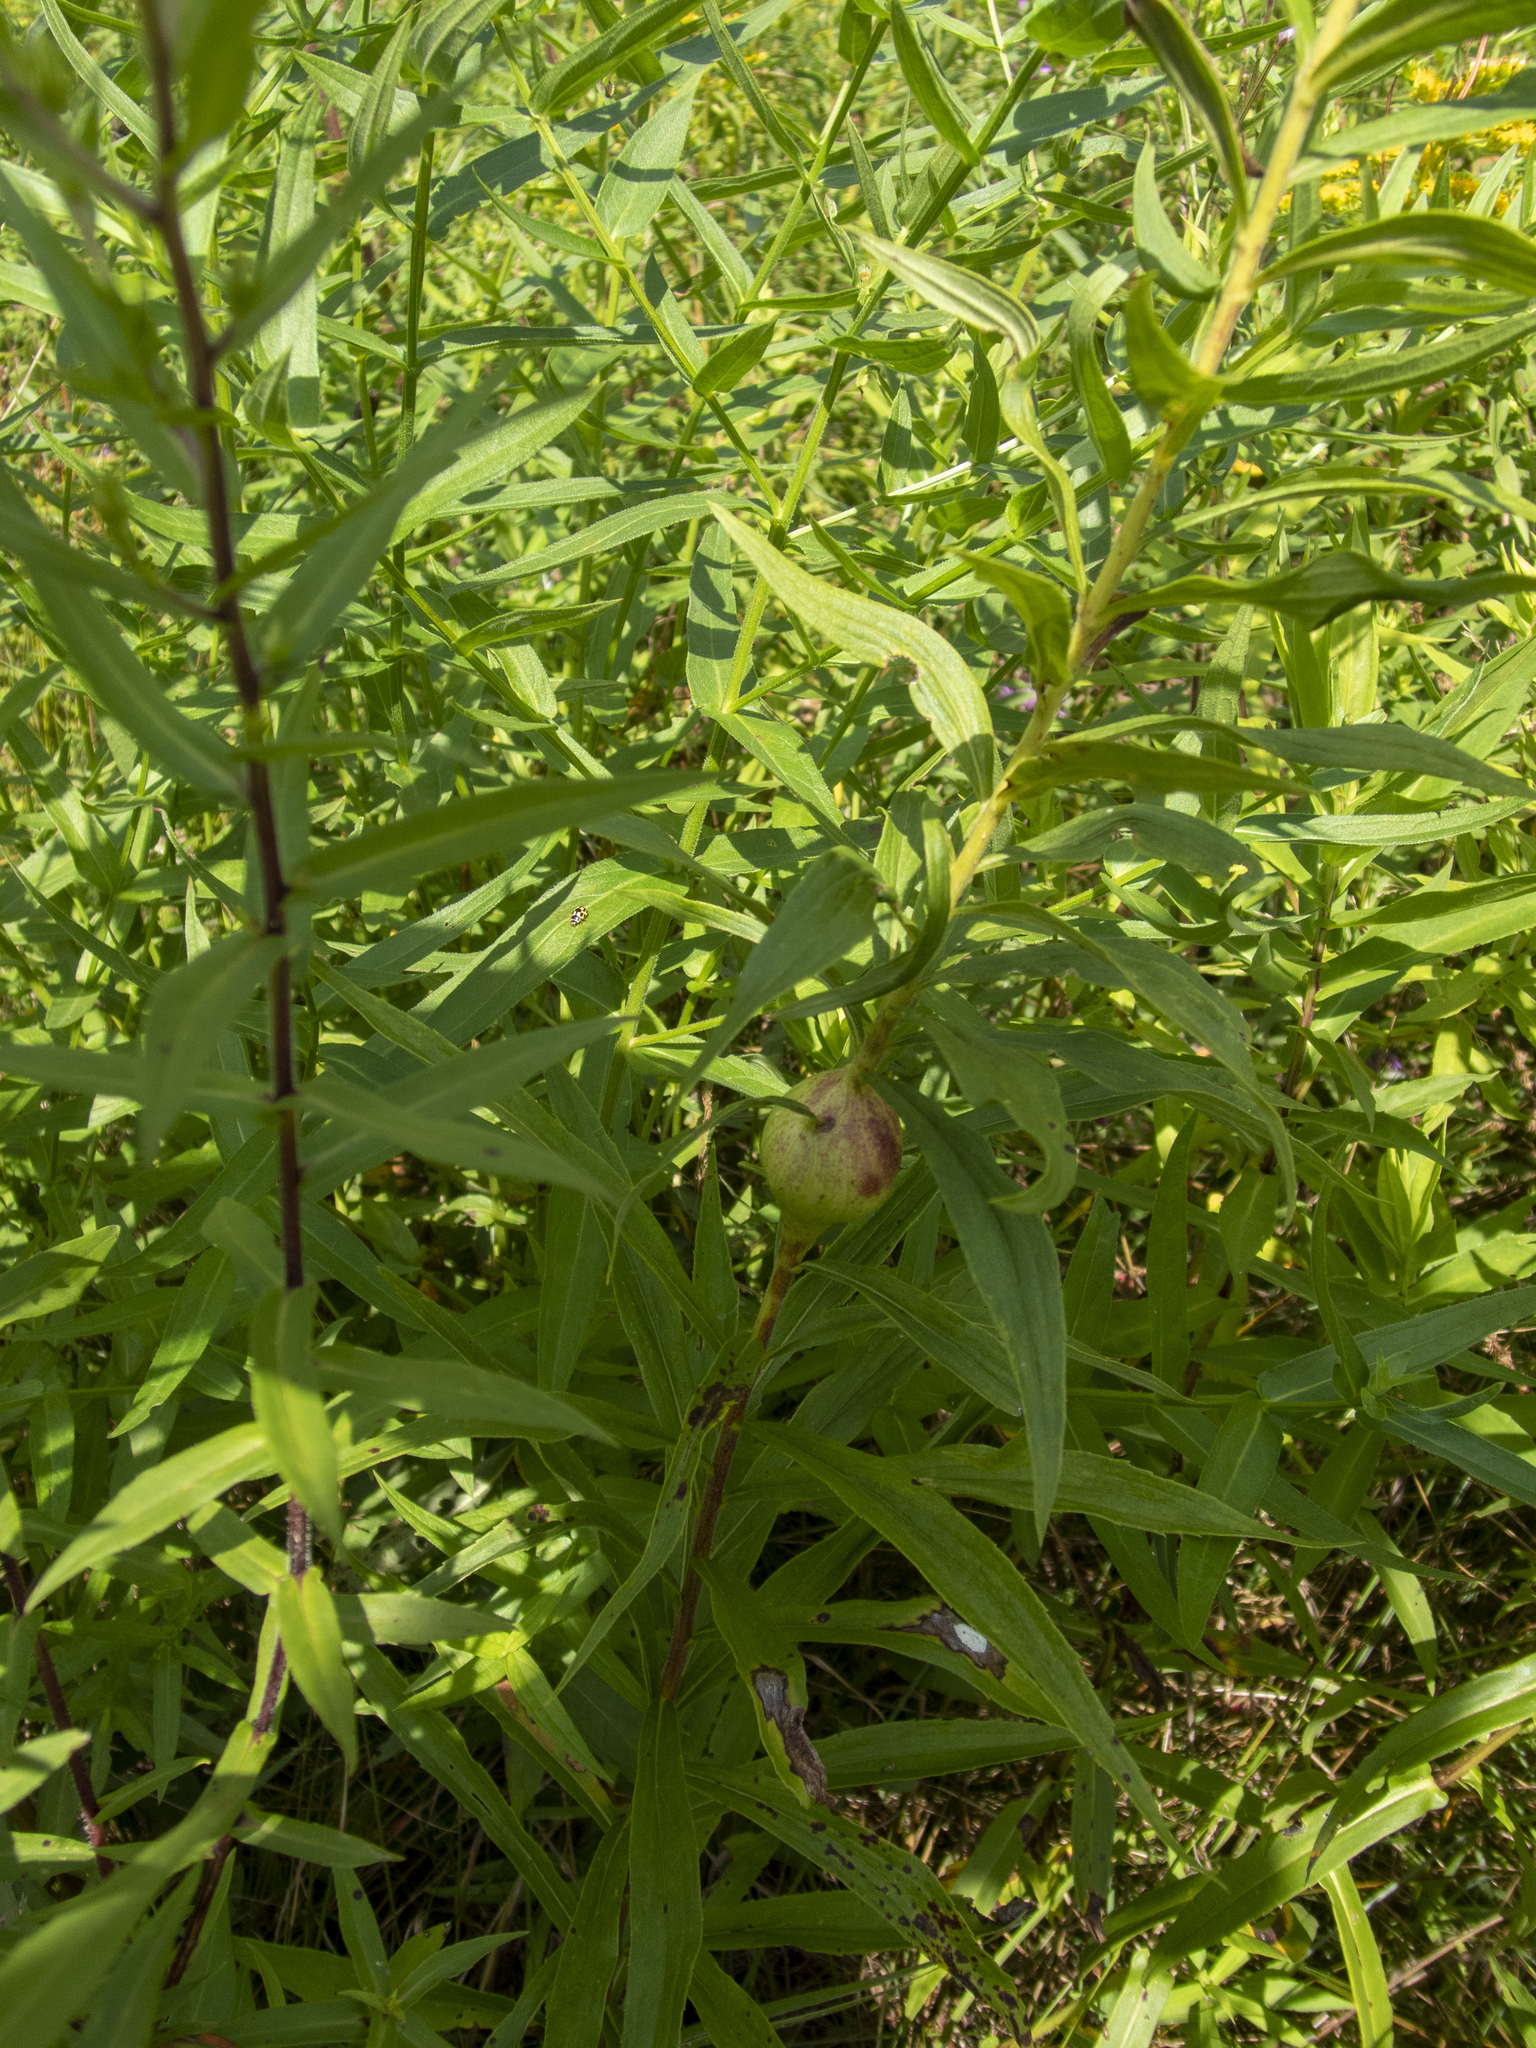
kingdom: Animalia
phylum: Arthropoda
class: Insecta
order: Diptera
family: Tephritidae
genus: Eurosta
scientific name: Eurosta solidaginis
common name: Goldenrod gall fly
